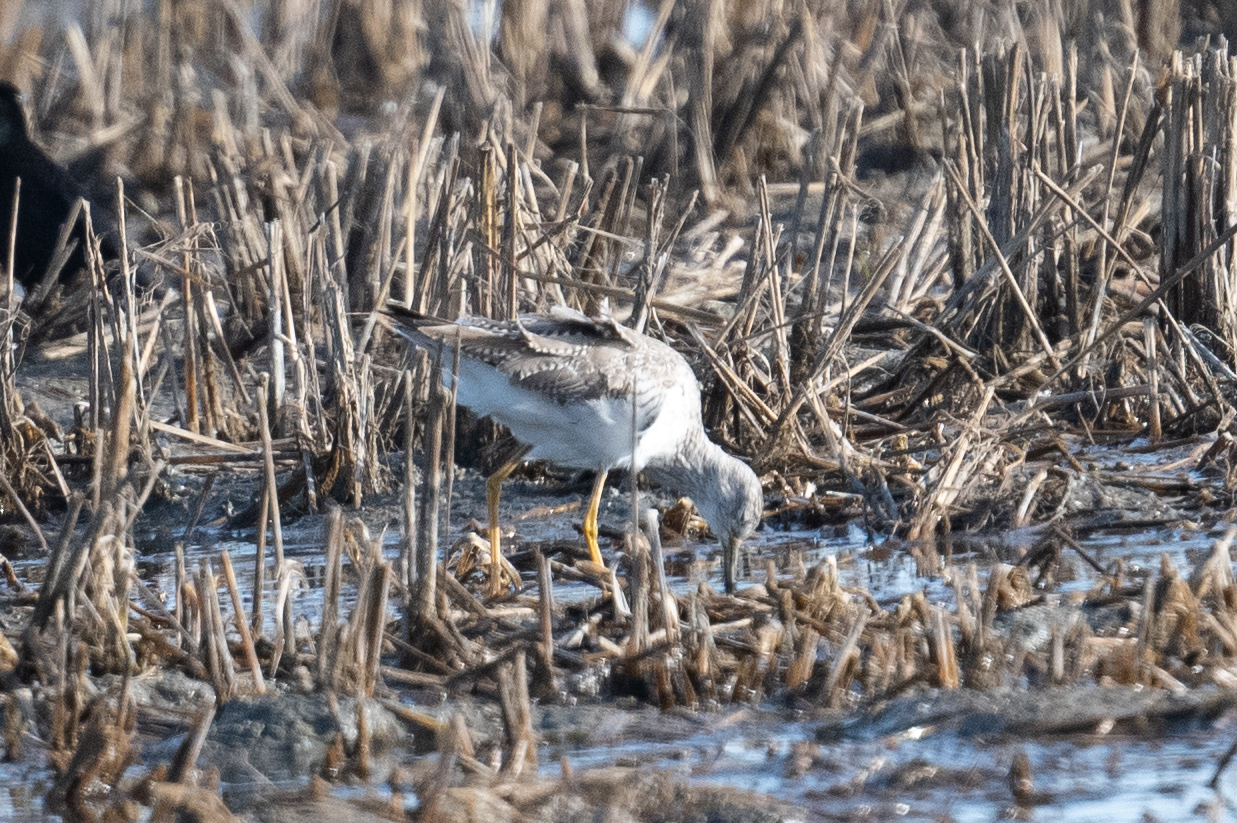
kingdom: Animalia
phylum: Chordata
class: Aves
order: Charadriiformes
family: Scolopacidae
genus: Tringa
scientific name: Tringa melanoleuca
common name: Greater yellowlegs
